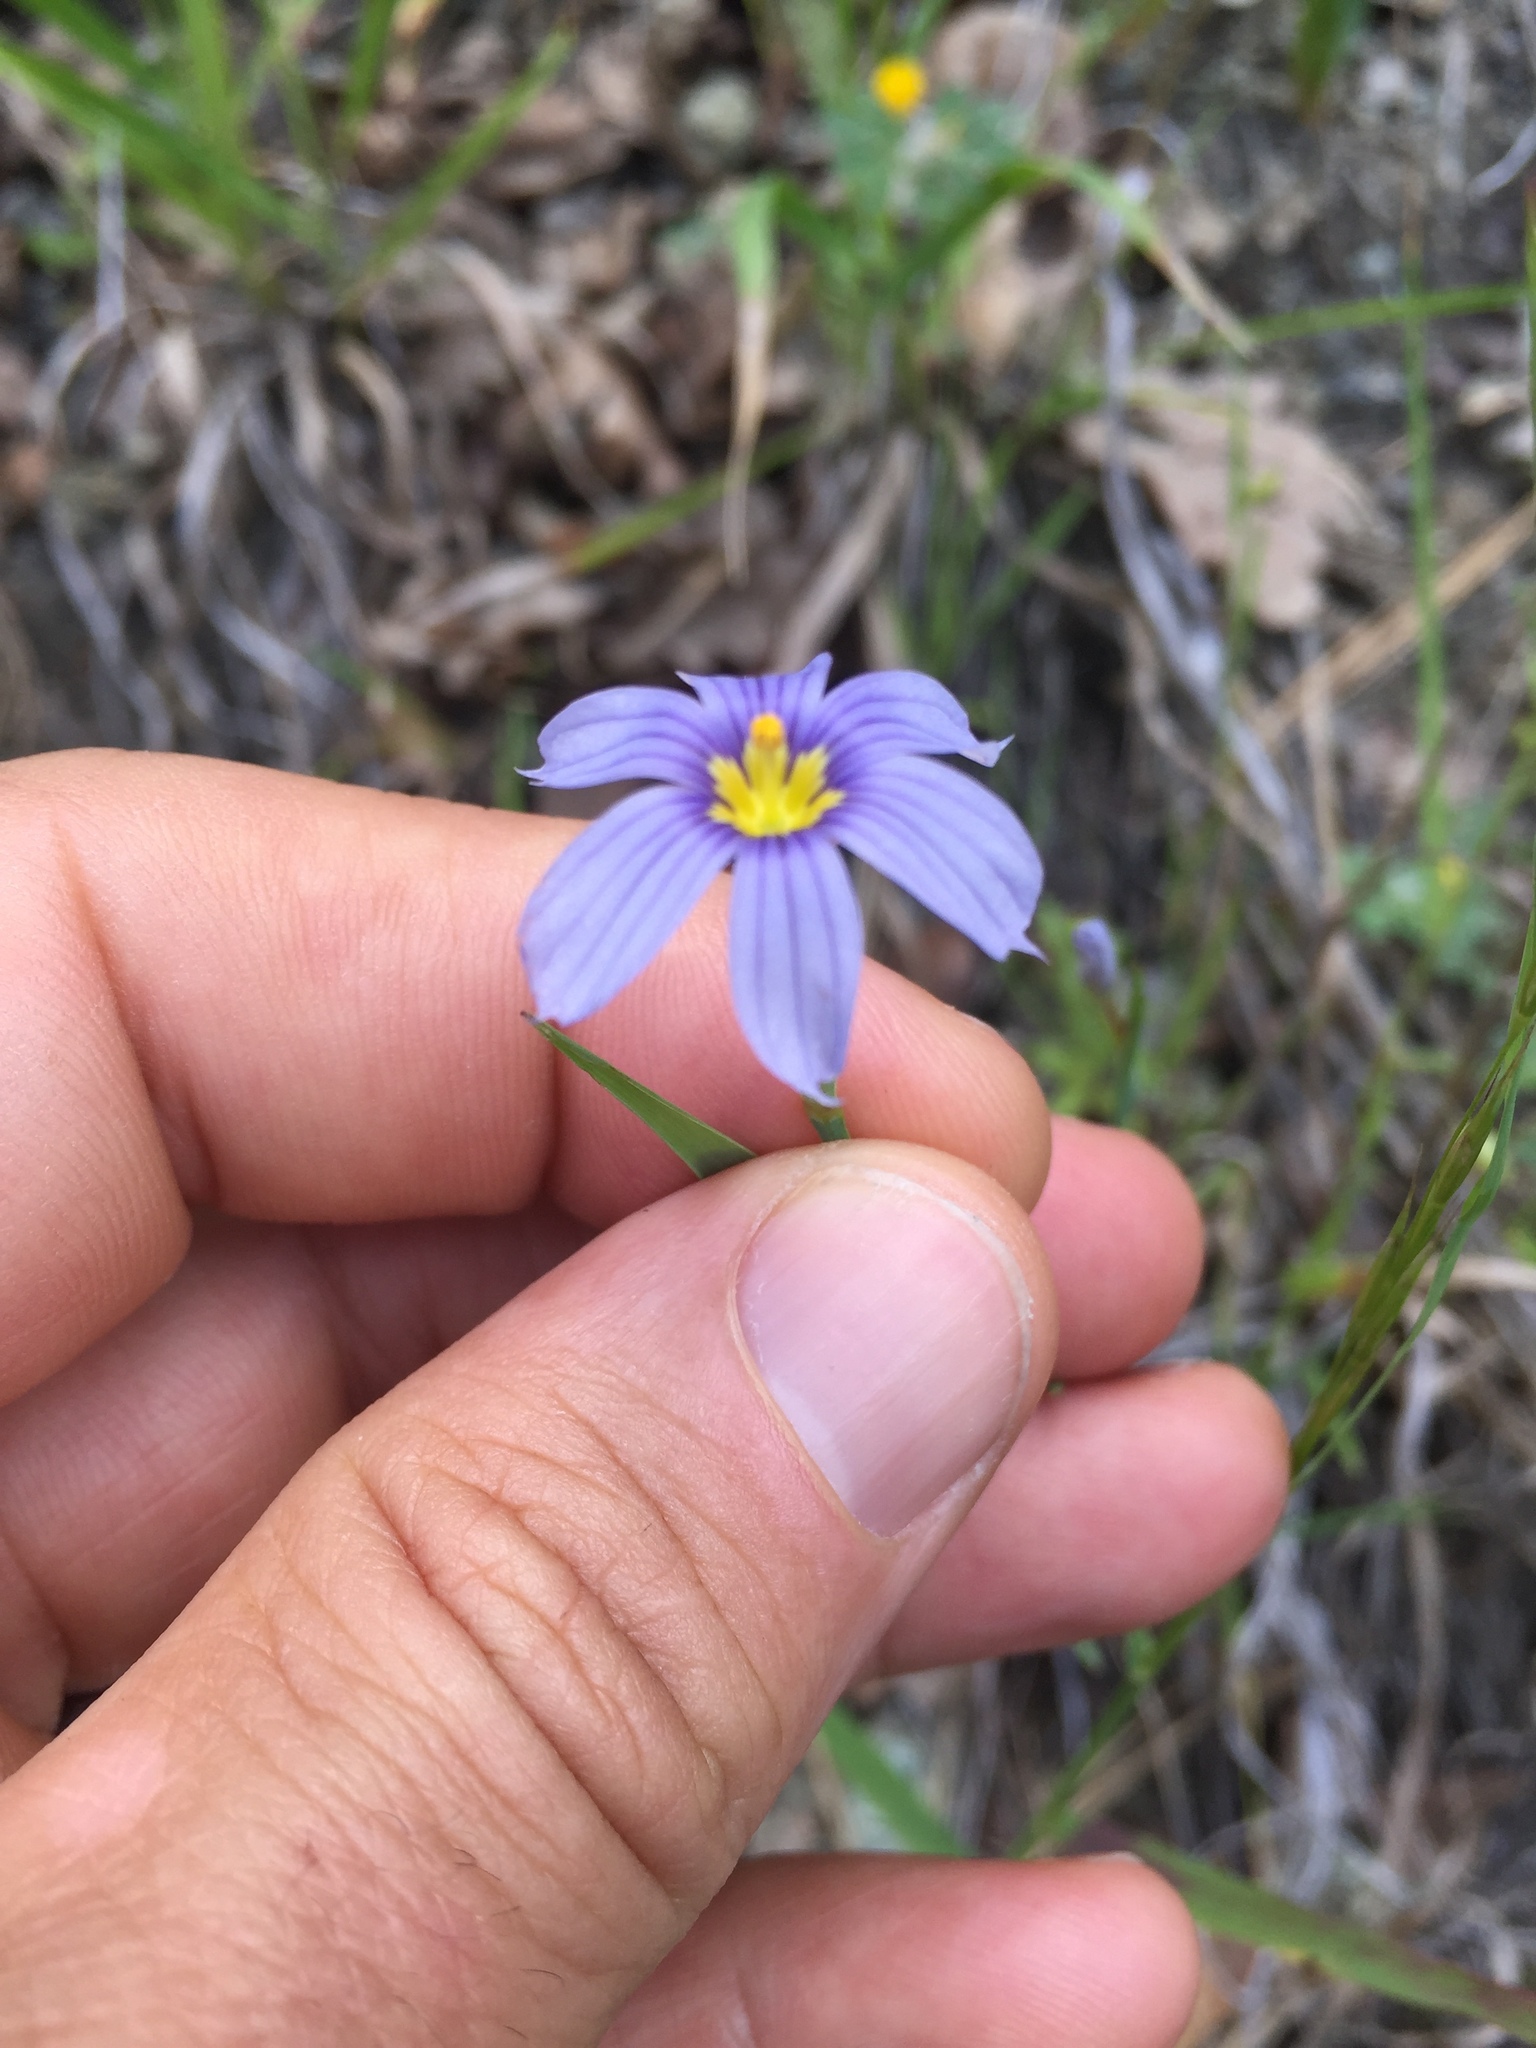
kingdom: Plantae
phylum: Tracheophyta
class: Liliopsida
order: Asparagales
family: Iridaceae
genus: Sisyrinchium
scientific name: Sisyrinchium bellum
